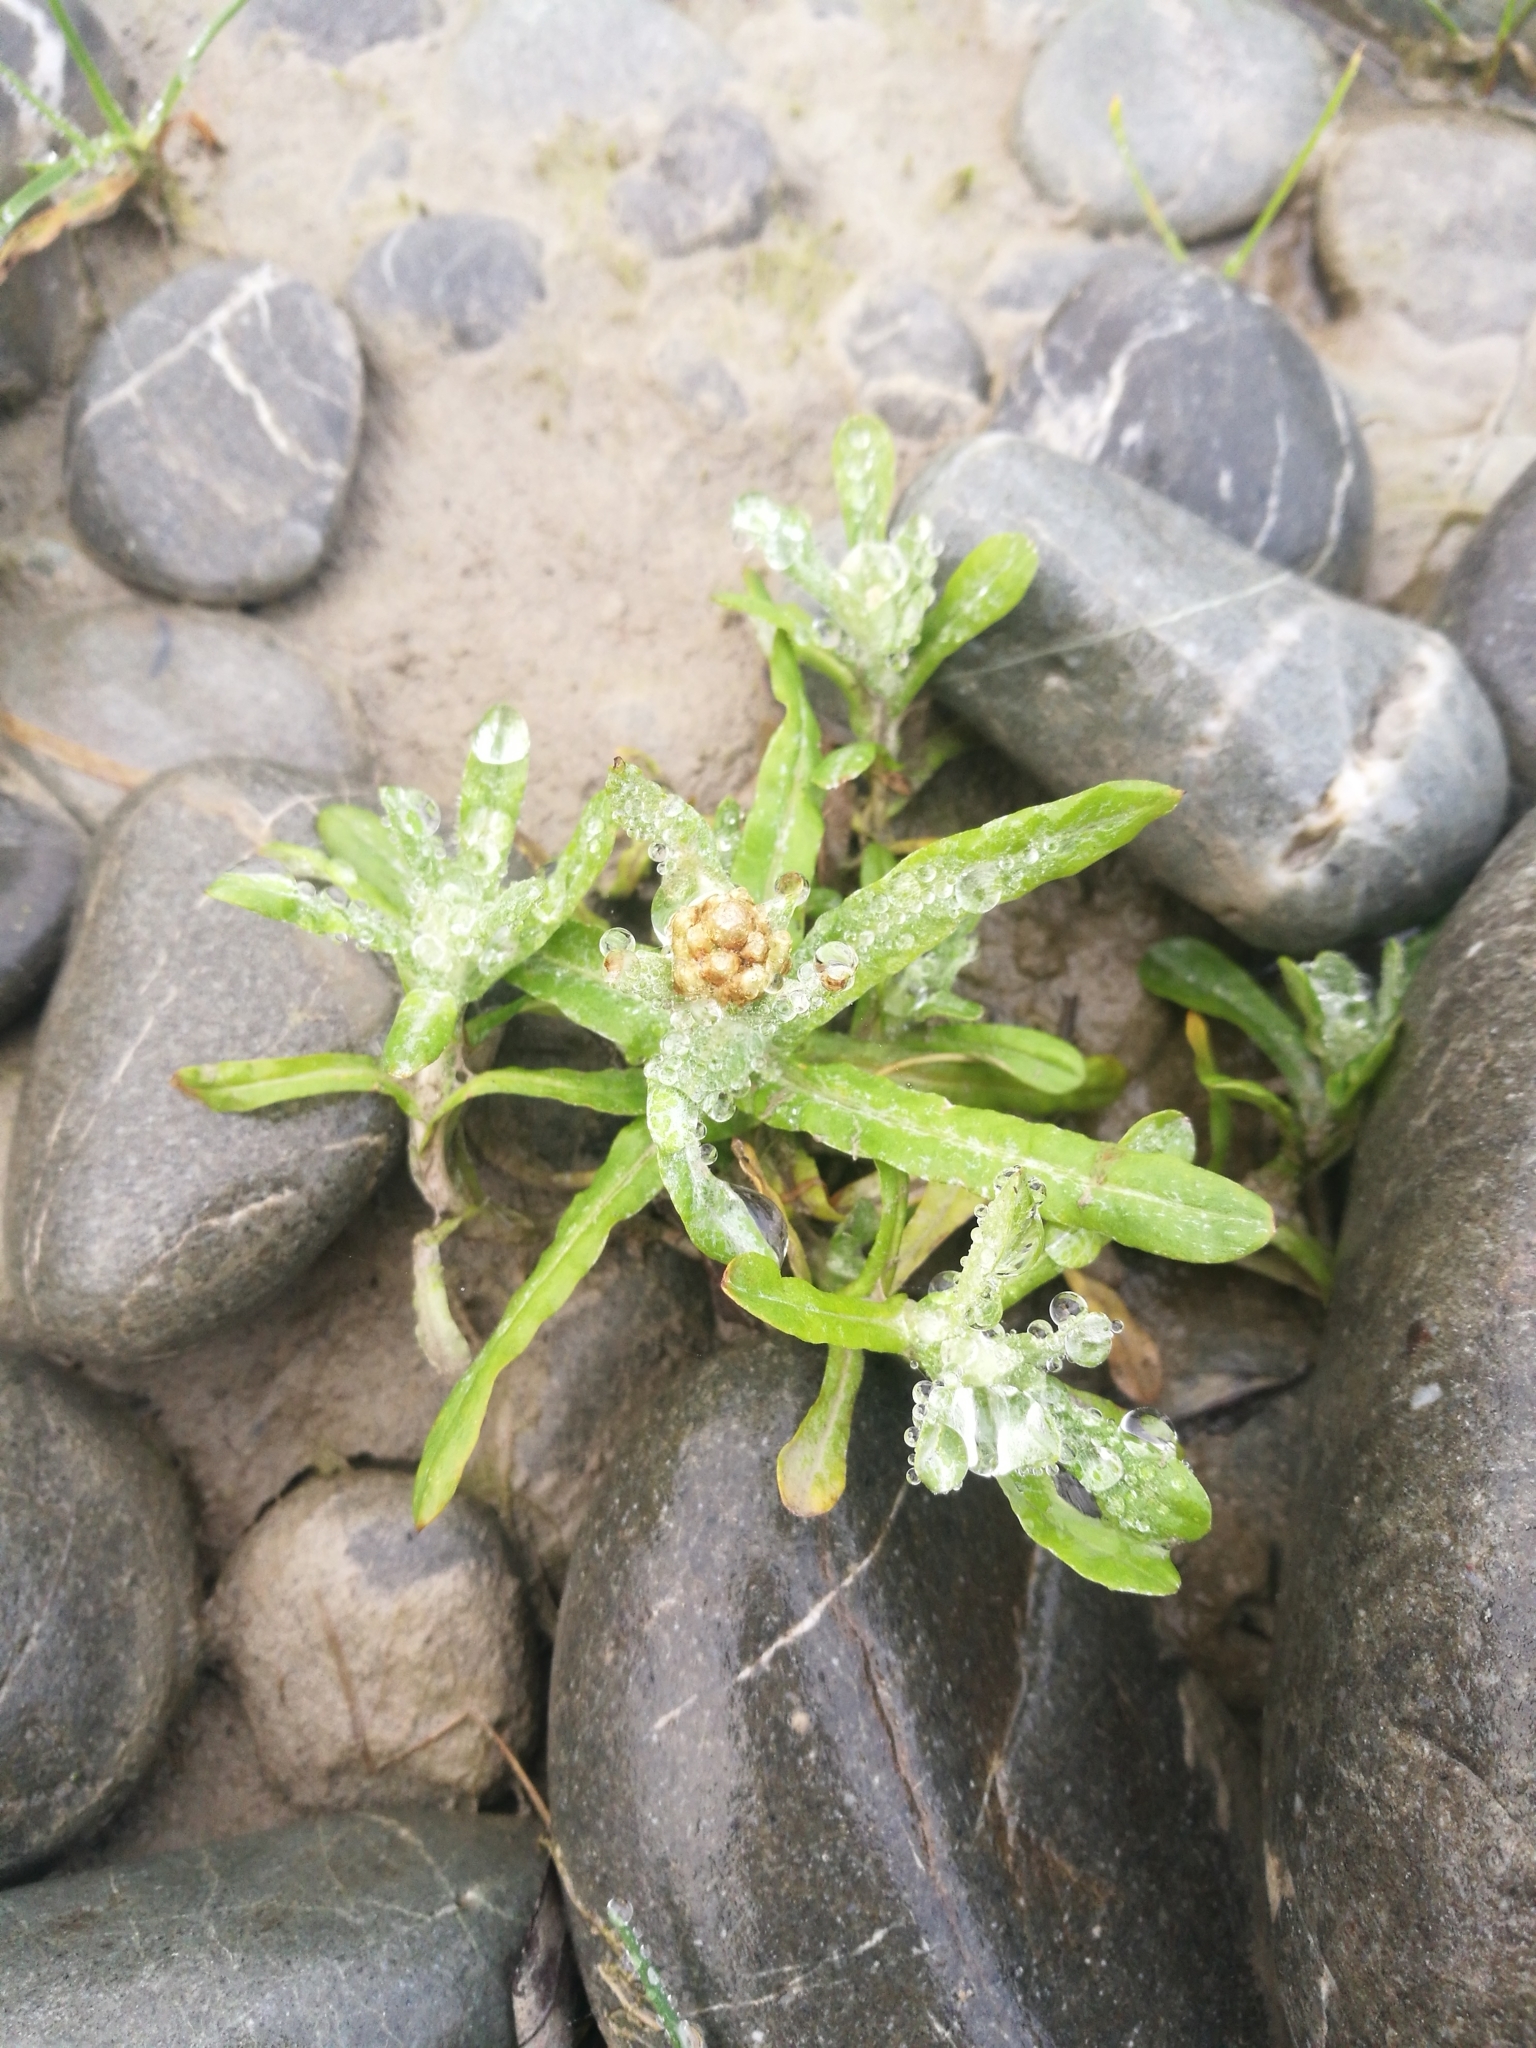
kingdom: Plantae
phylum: Tracheophyta
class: Magnoliopsida
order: Asterales
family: Asteraceae
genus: Helichrysum
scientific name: Helichrysum luteoalbum
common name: Daisy
